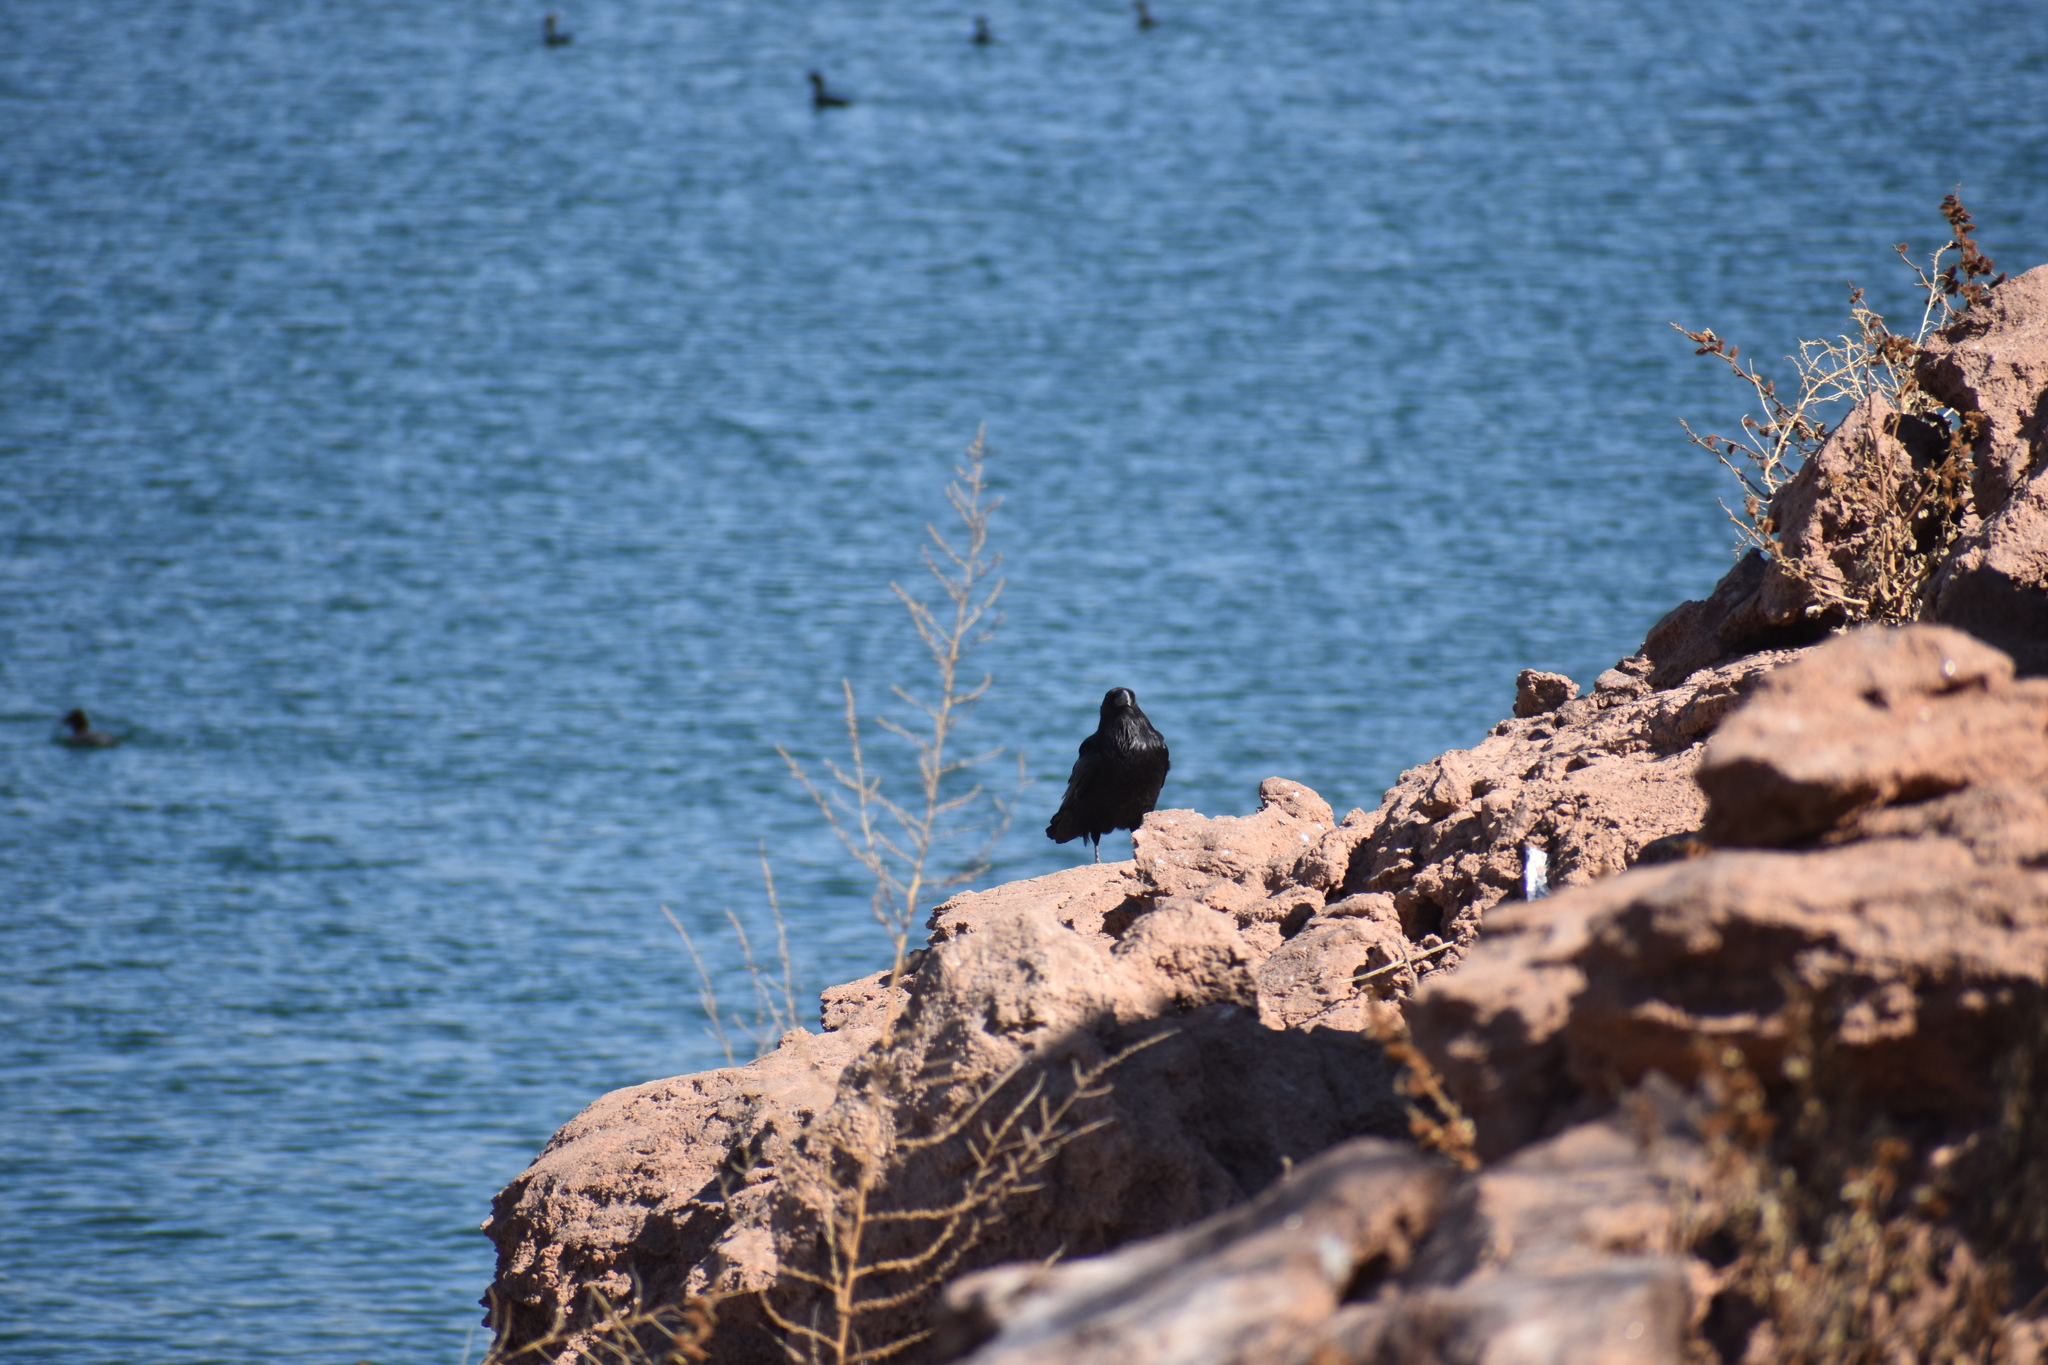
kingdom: Animalia
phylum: Chordata
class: Aves
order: Passeriformes
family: Corvidae
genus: Corvus
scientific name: Corvus corax
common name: Common raven
